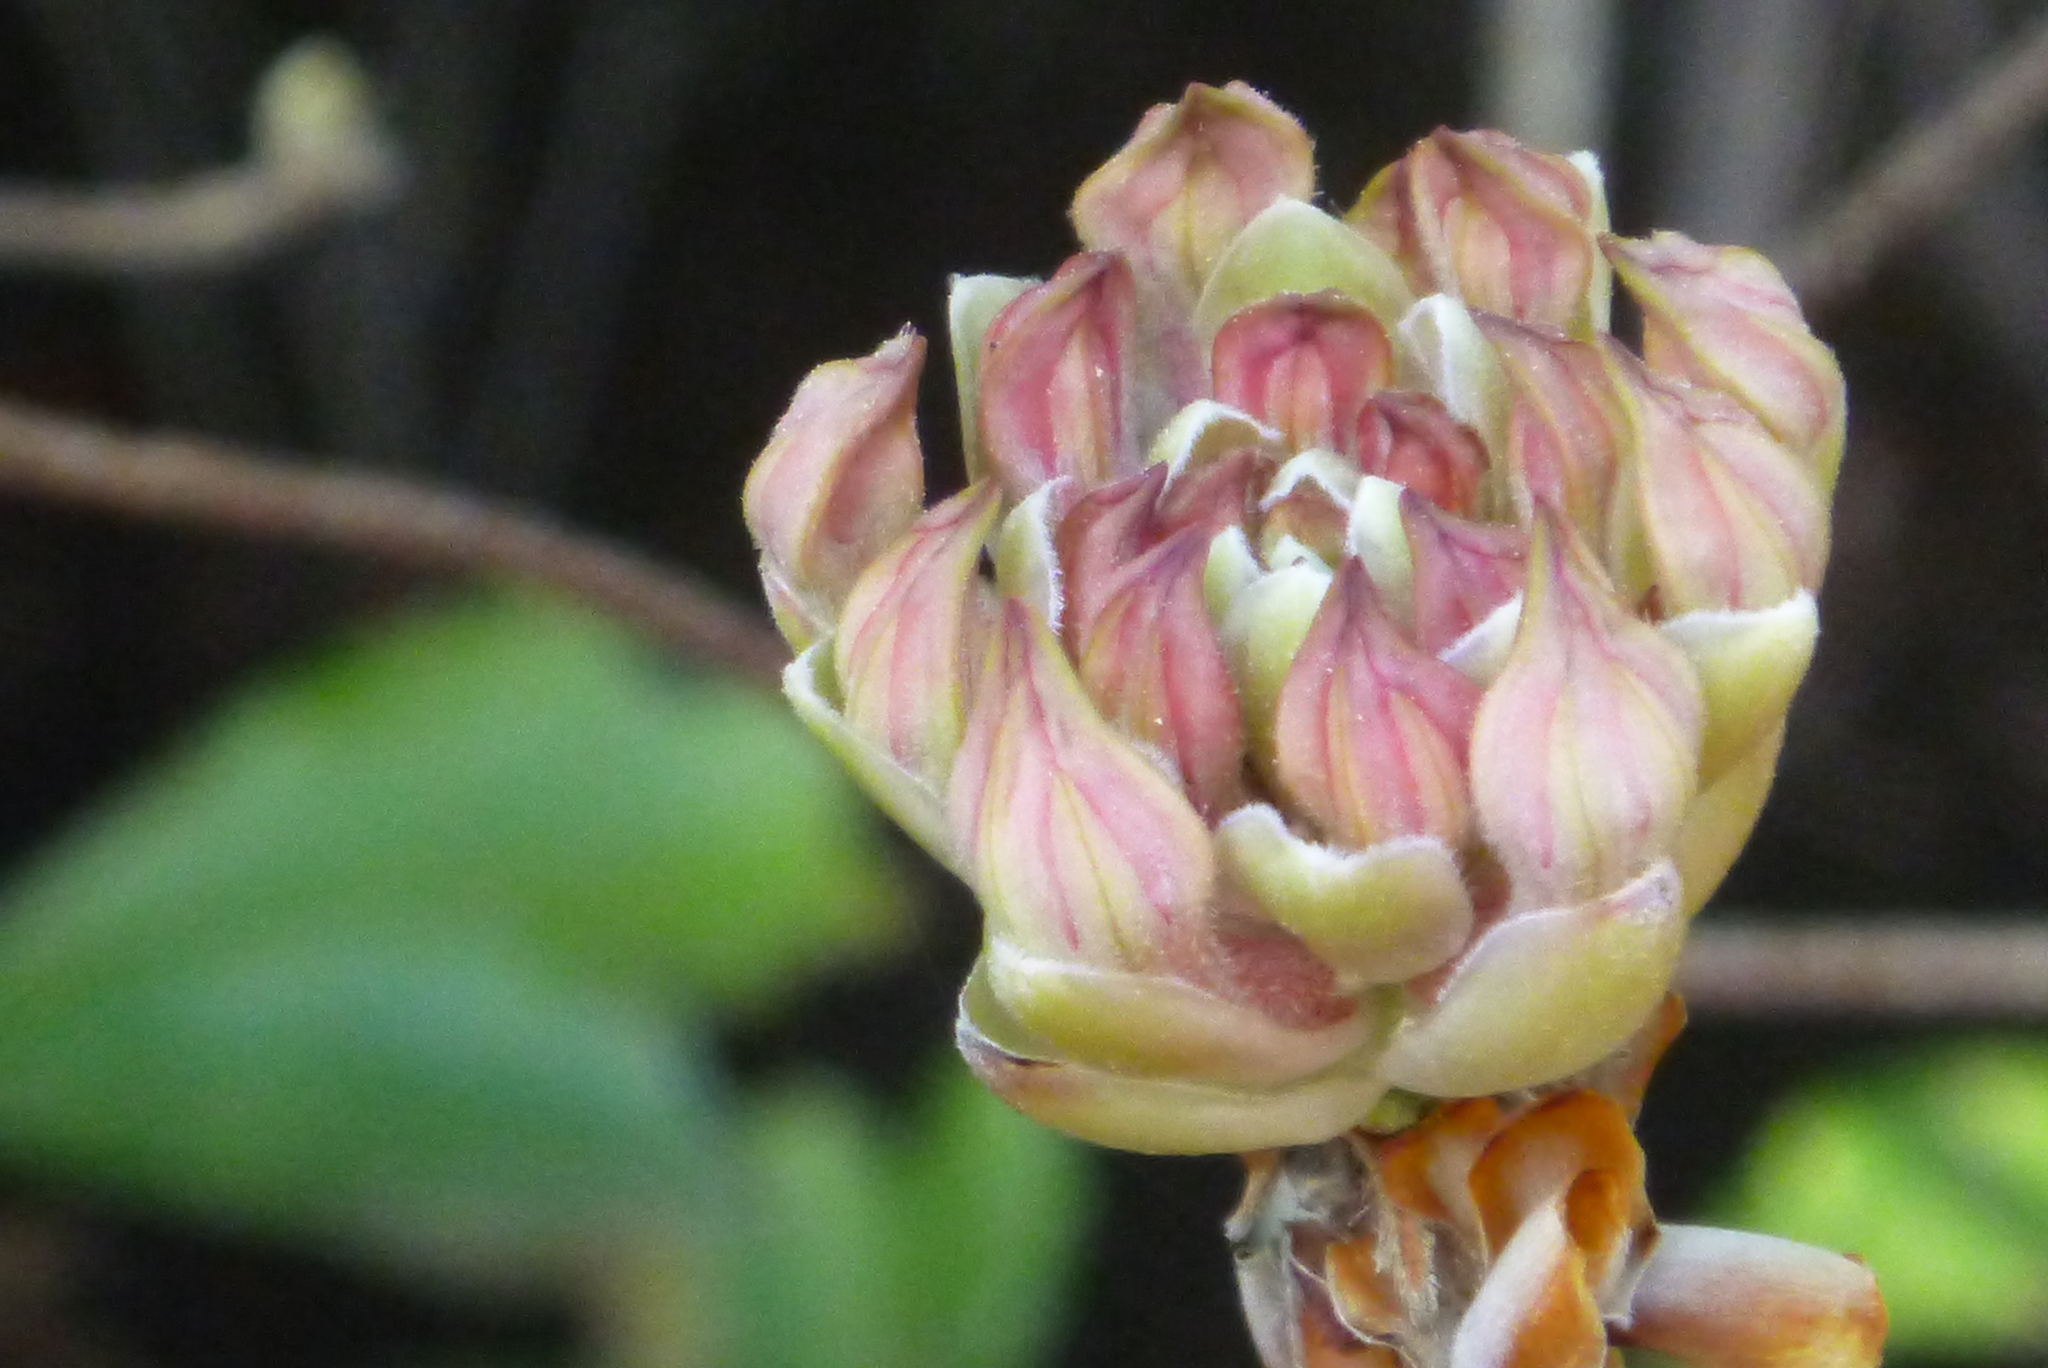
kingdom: Plantae
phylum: Tracheophyta
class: Magnoliopsida
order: Ericales
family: Ericaceae
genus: Rhododendron
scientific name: Rhododendron canescens
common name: Mountain azalea
